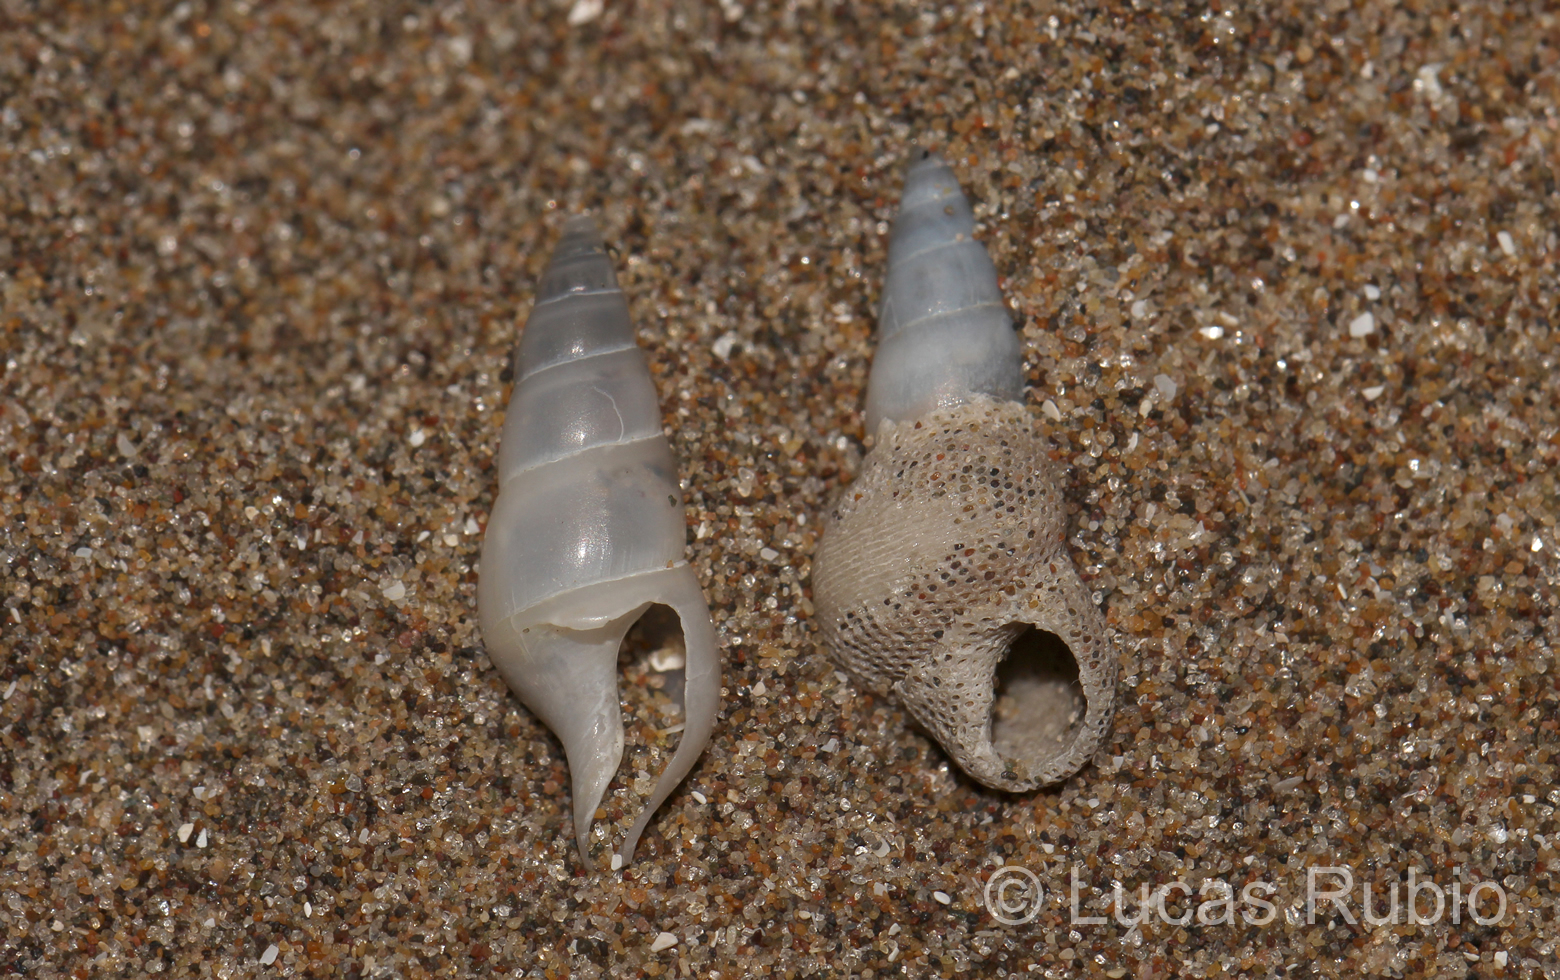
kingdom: Animalia
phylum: Mollusca
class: Gastropoda
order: Neogastropoda
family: Columbellidae
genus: Mitrella
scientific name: Mitrella rubra
